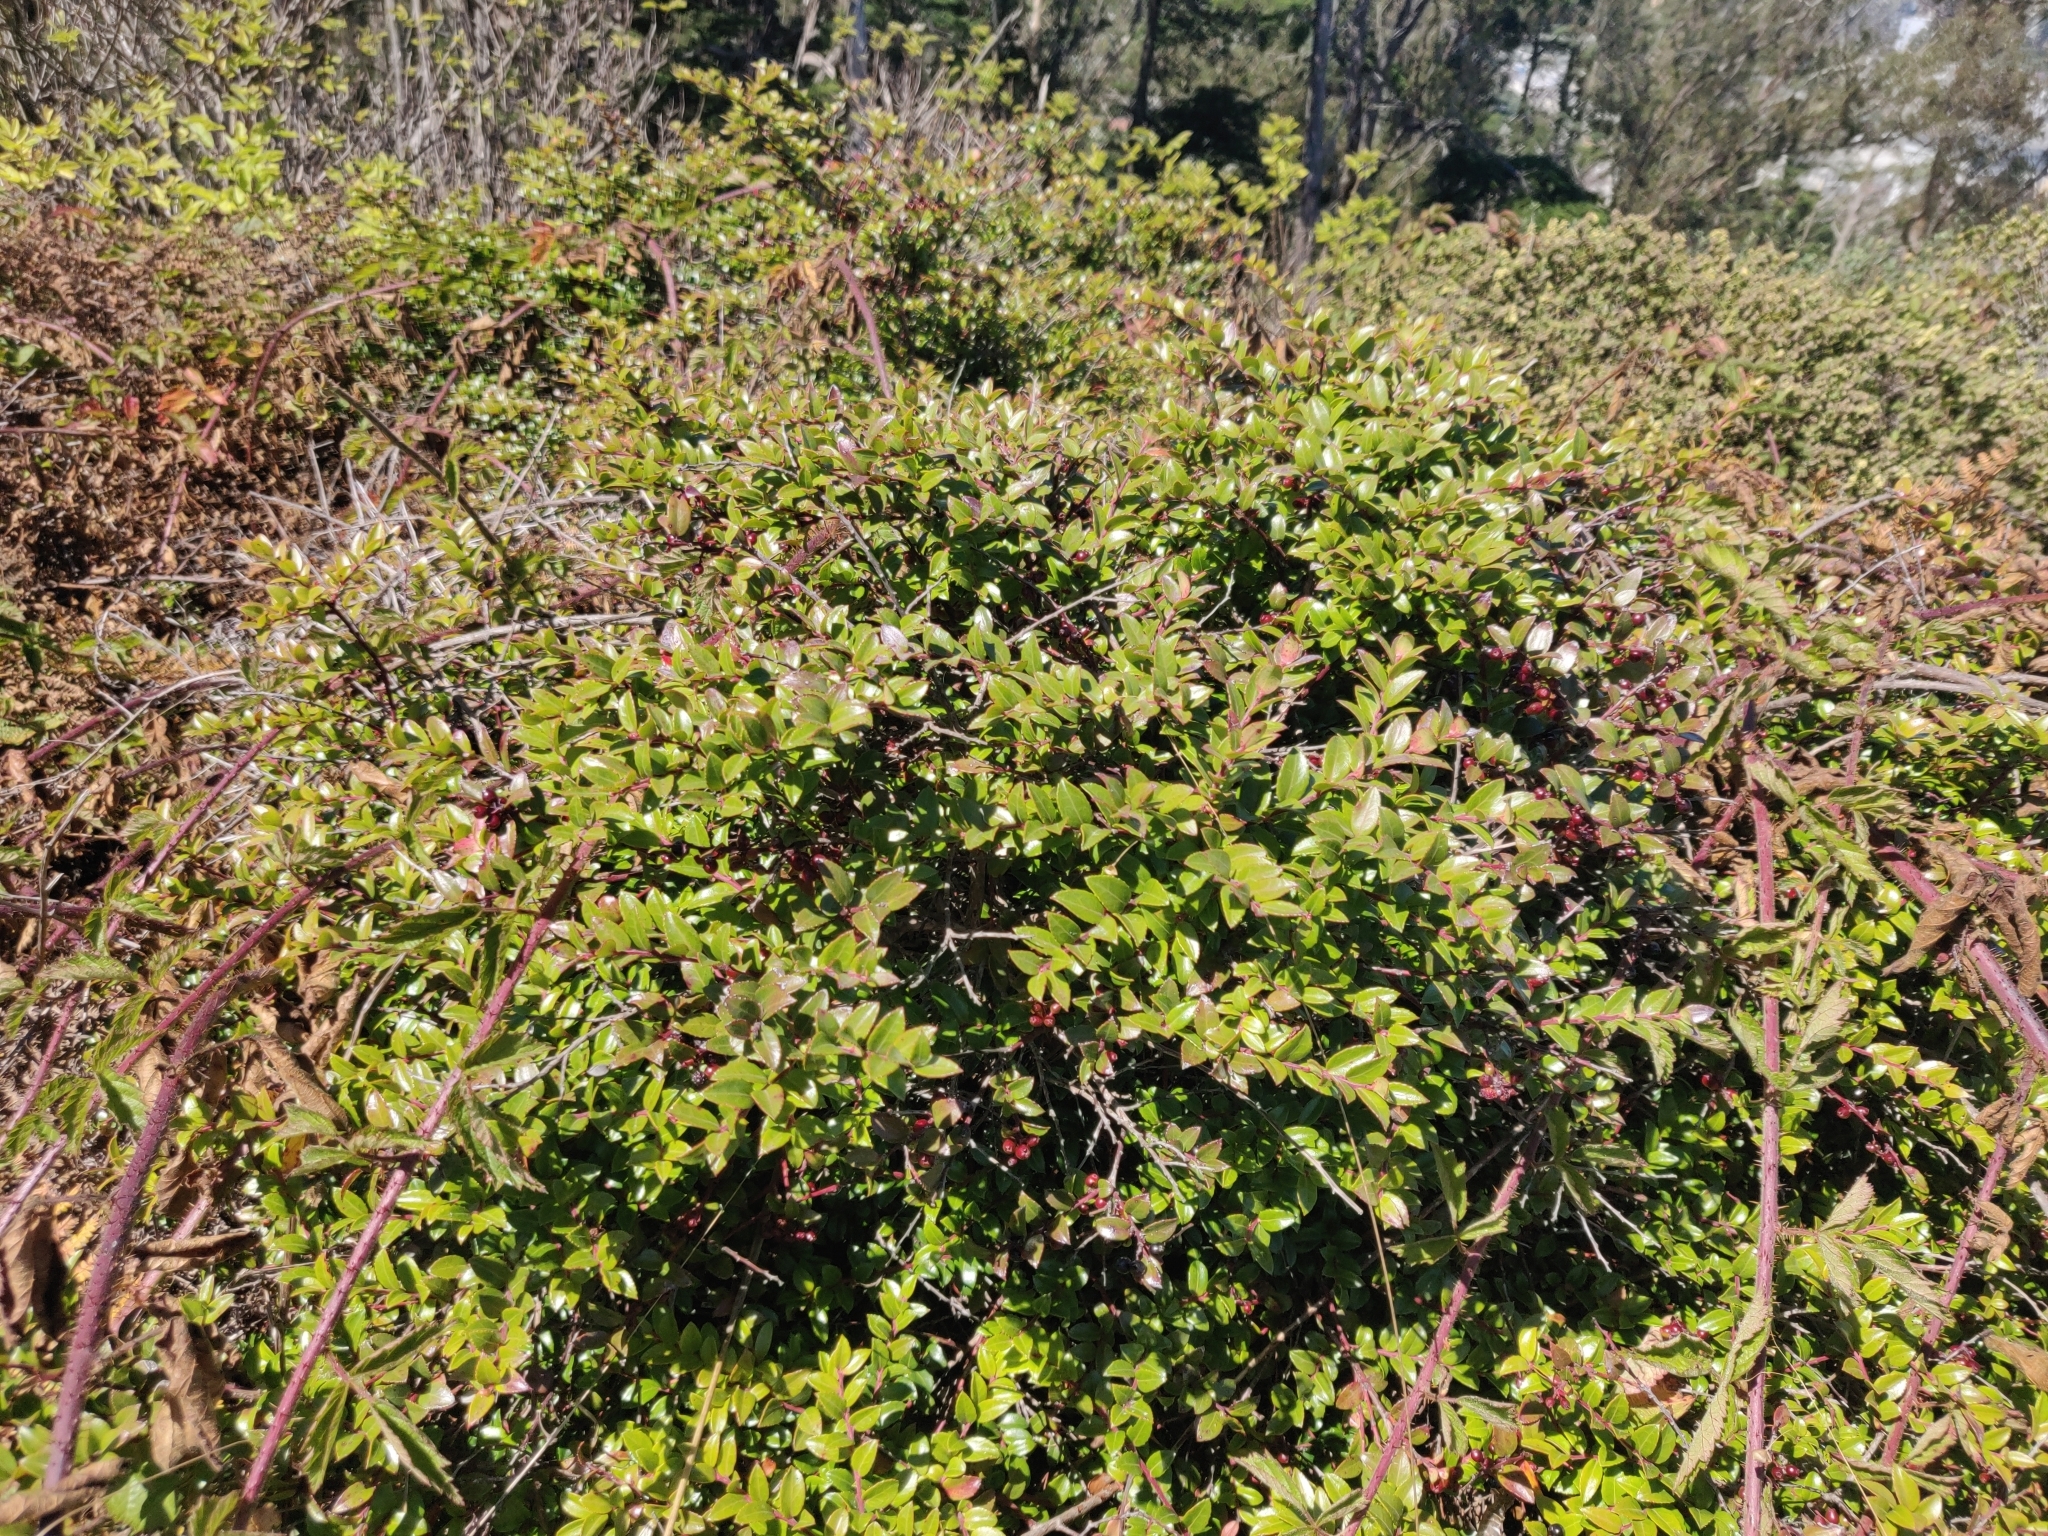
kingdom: Plantae
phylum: Tracheophyta
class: Magnoliopsida
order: Ericales
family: Ericaceae
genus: Vaccinium
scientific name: Vaccinium ovatum
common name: California-huckleberry
